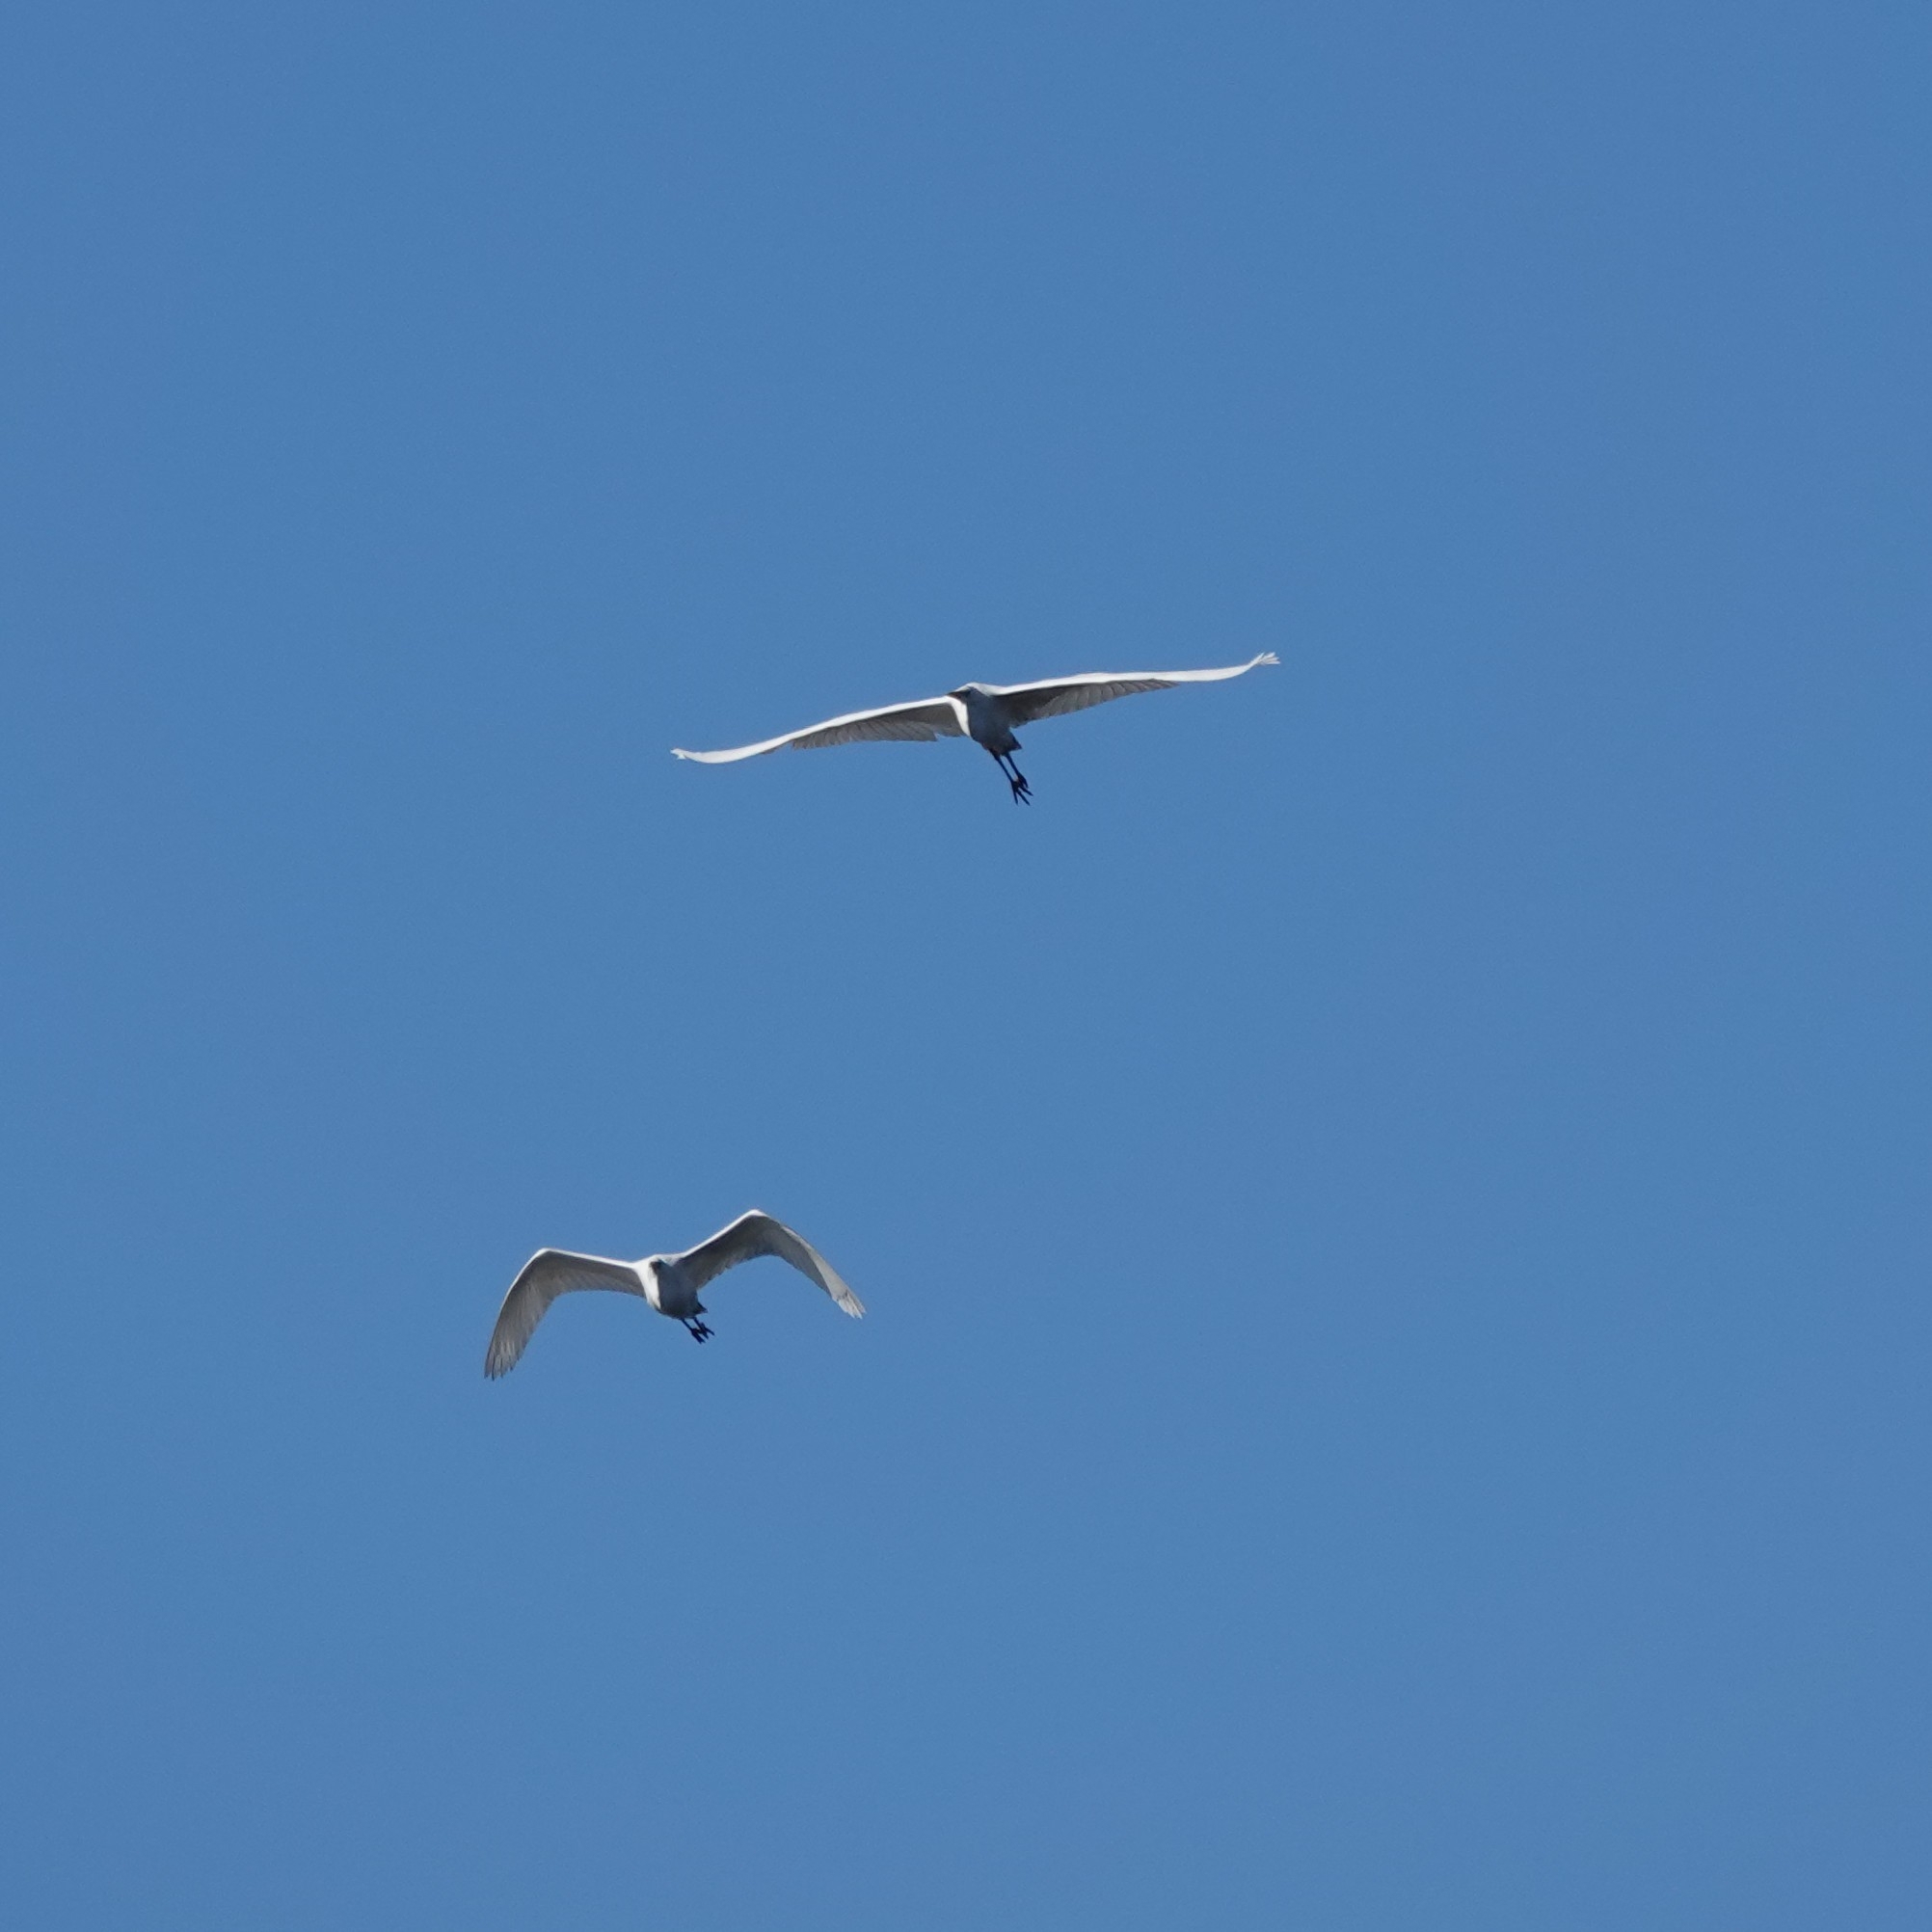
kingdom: Animalia
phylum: Chordata
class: Aves
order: Pelecaniformes
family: Ardeidae
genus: Ardea
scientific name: Ardea alba
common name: Great egret
